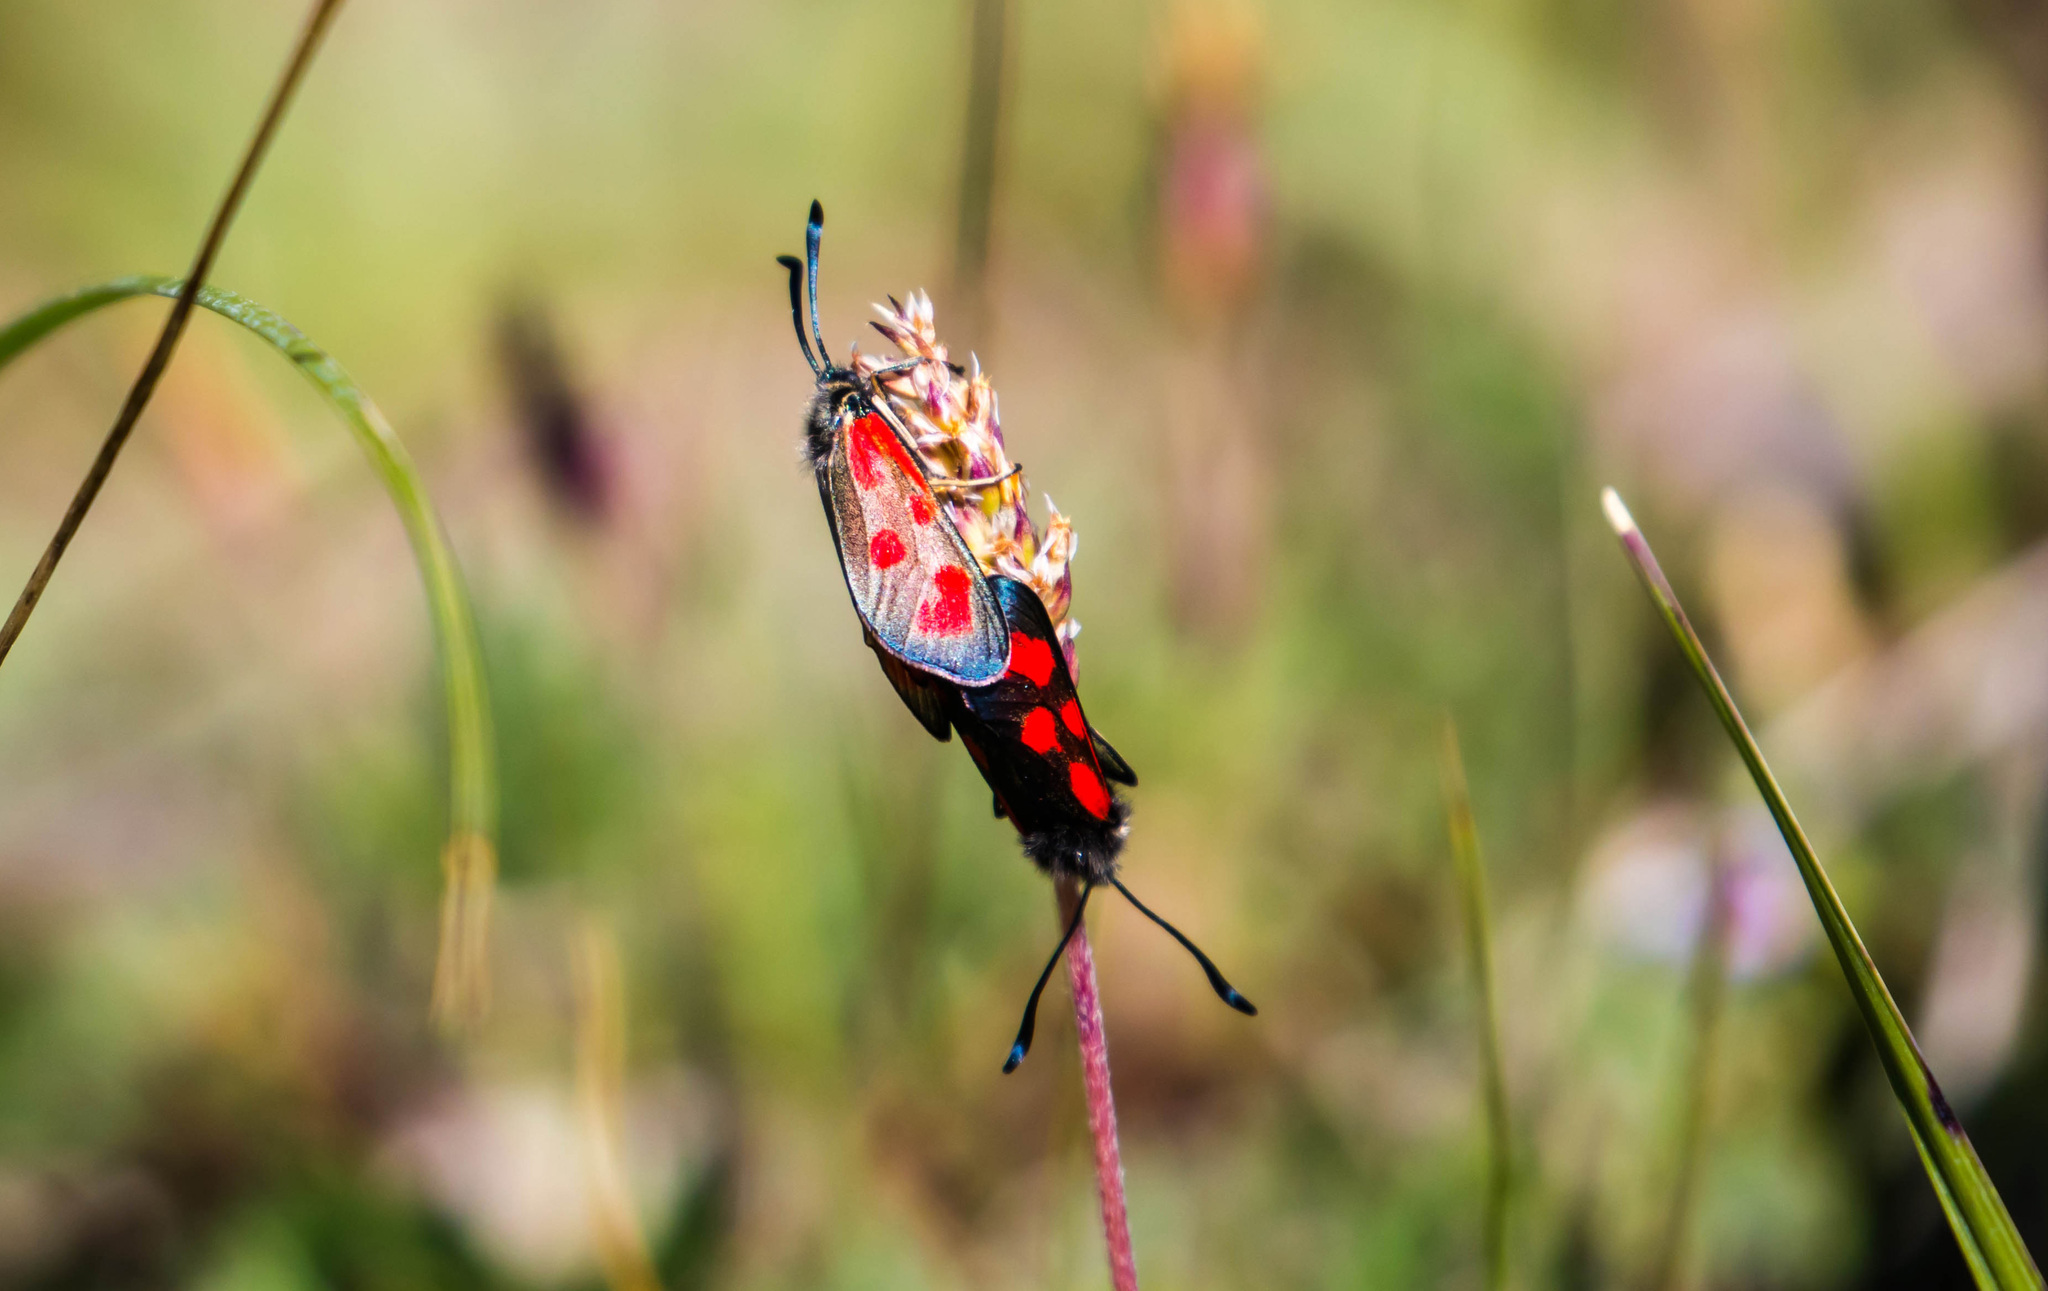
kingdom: Animalia
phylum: Arthropoda
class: Insecta
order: Lepidoptera
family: Zygaenidae
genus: Zygaena
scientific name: Zygaena loti
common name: Slender scotch burnet
